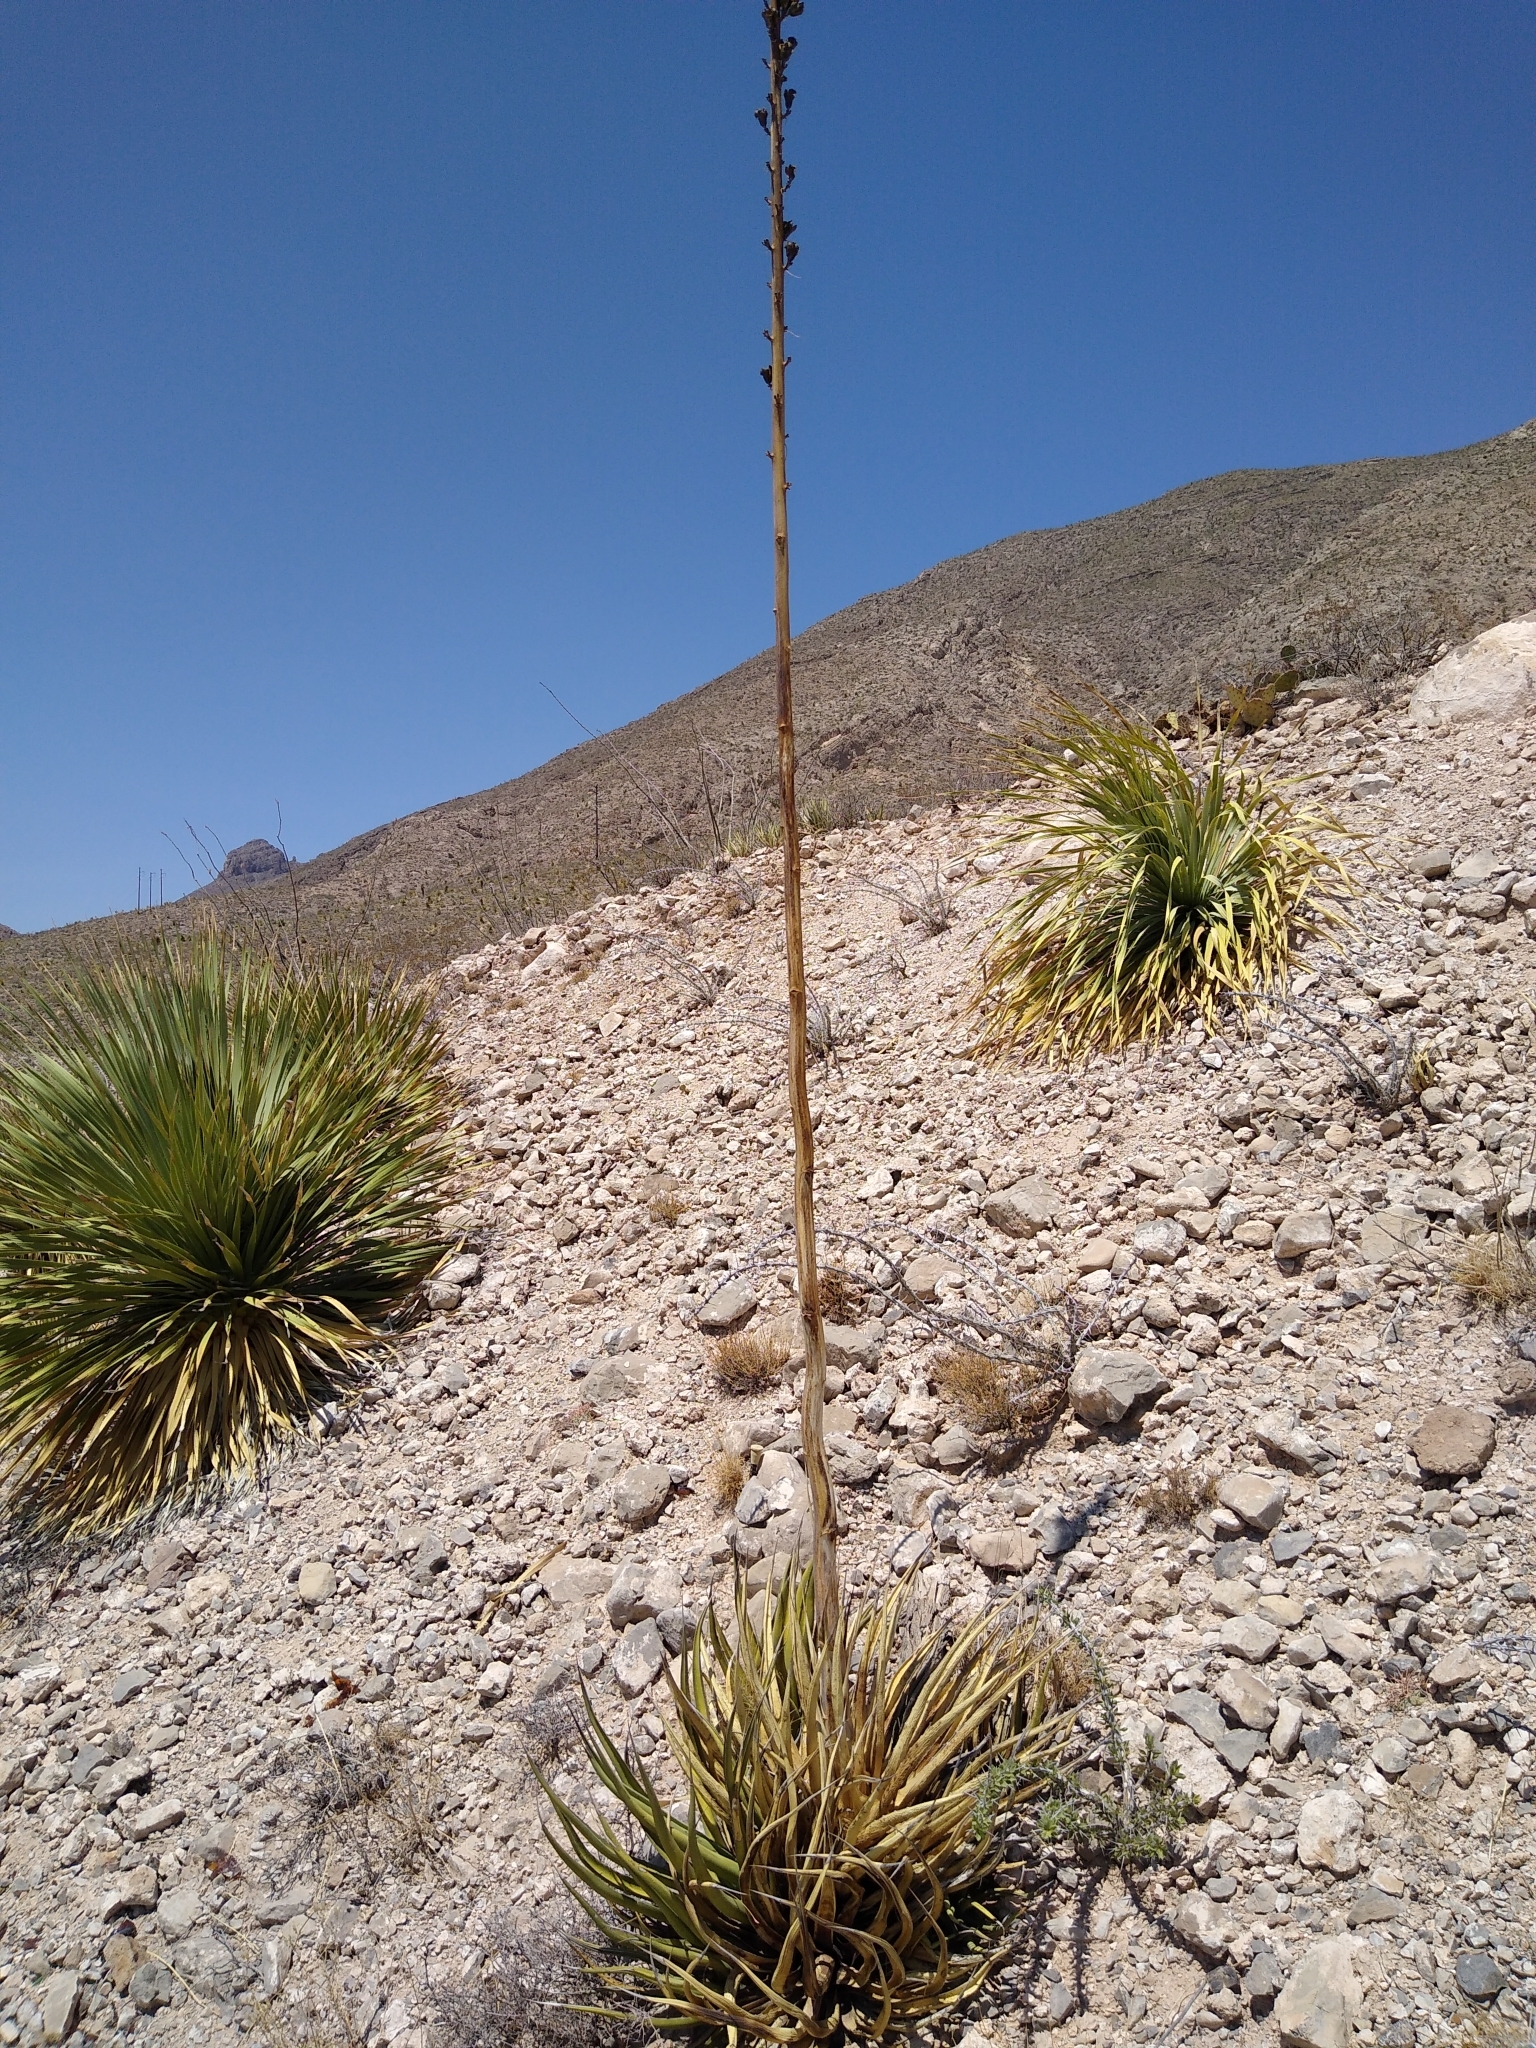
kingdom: Plantae
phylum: Tracheophyta
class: Liliopsida
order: Asparagales
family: Asparagaceae
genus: Agave
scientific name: Agave lechuguilla
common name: Lecheguilla agave
